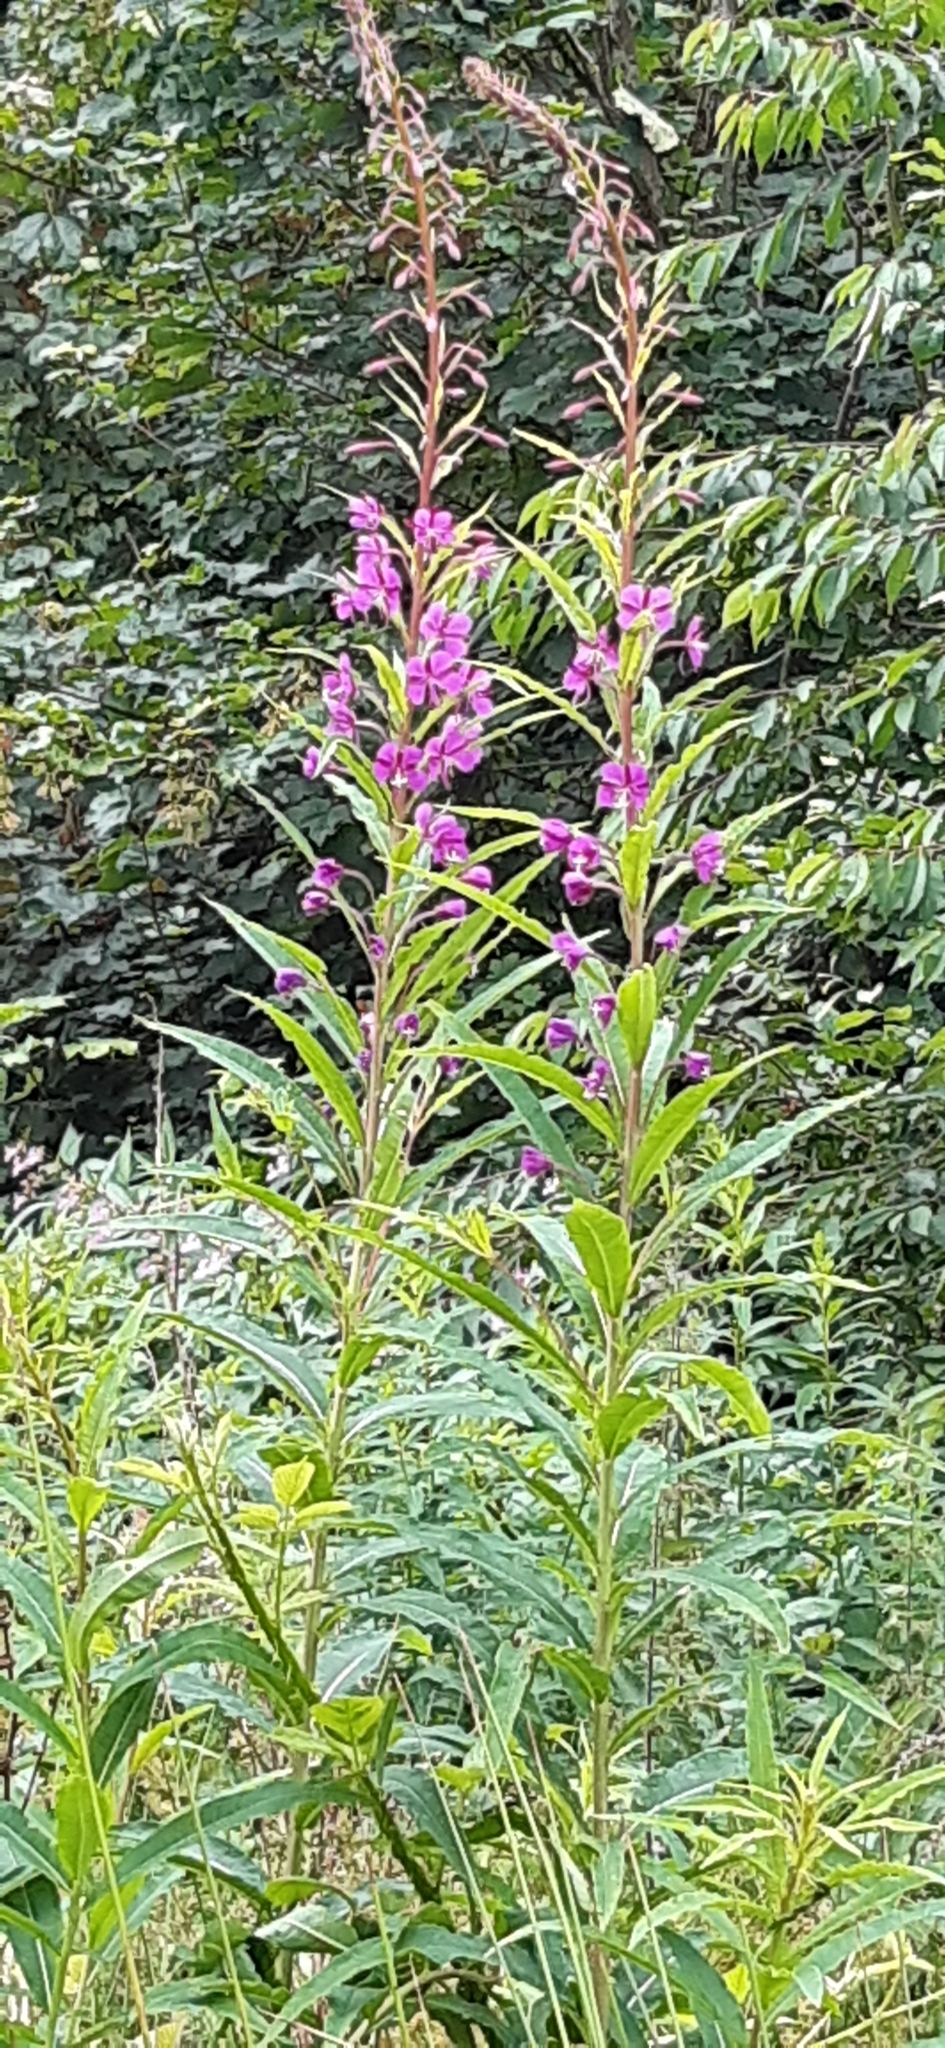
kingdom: Plantae
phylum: Tracheophyta
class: Magnoliopsida
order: Myrtales
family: Onagraceae
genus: Chamaenerion
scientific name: Chamaenerion angustifolium
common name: Fireweed
